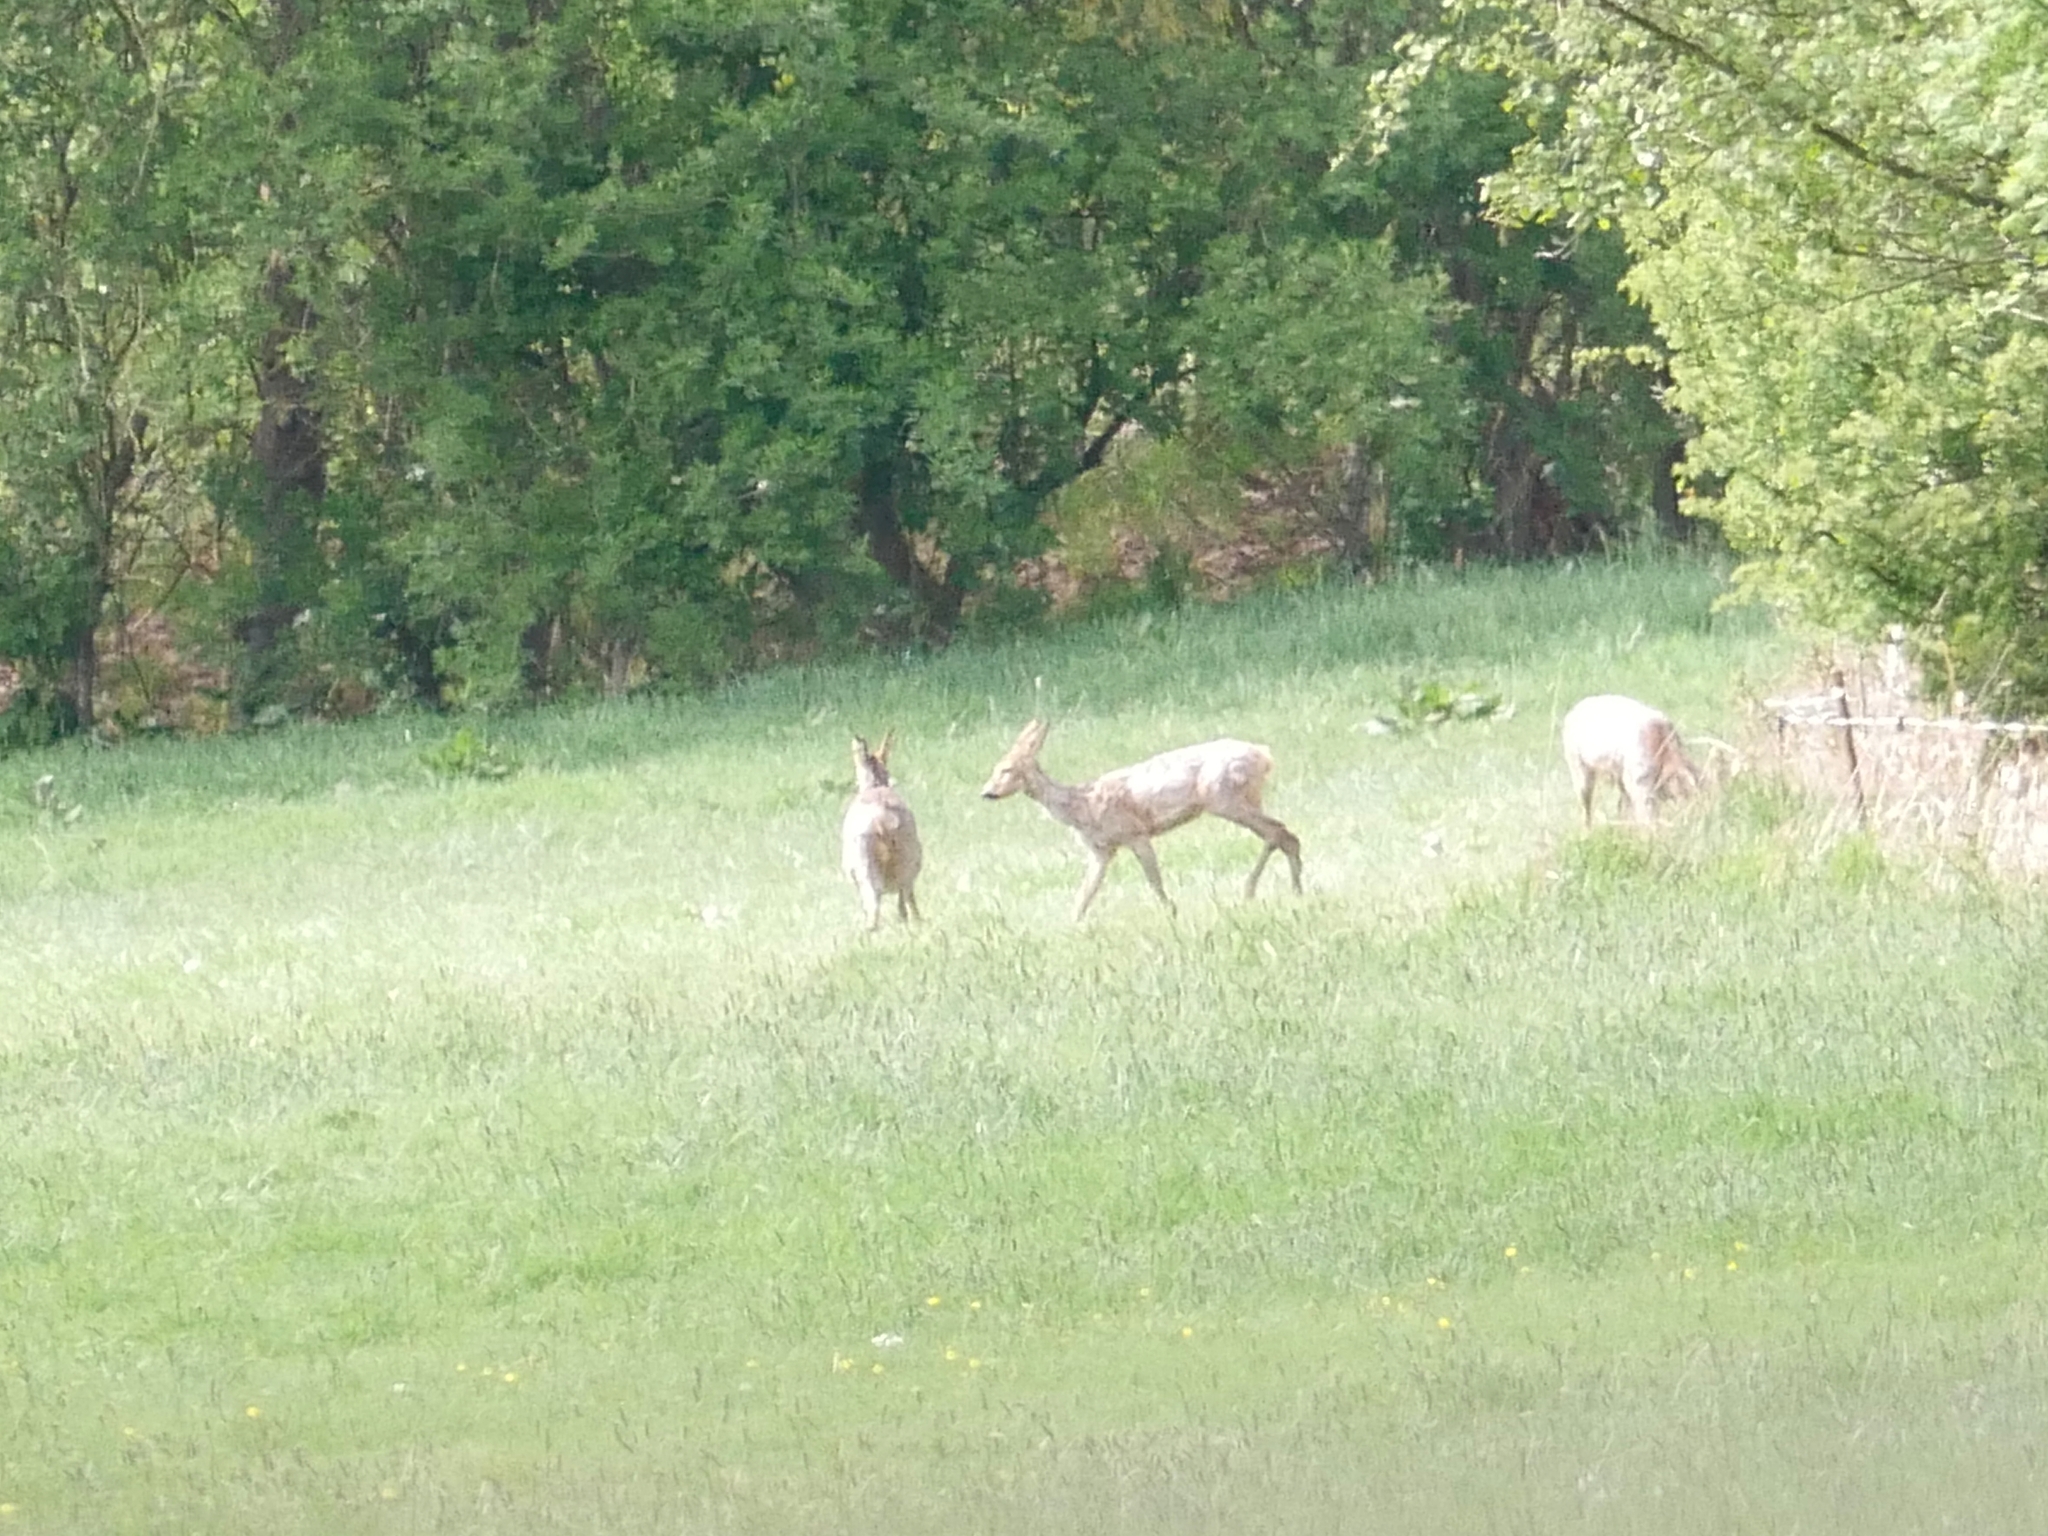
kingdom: Animalia
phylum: Chordata
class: Mammalia
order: Artiodactyla
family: Cervidae
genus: Capreolus
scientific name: Capreolus capreolus
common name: Western roe deer
